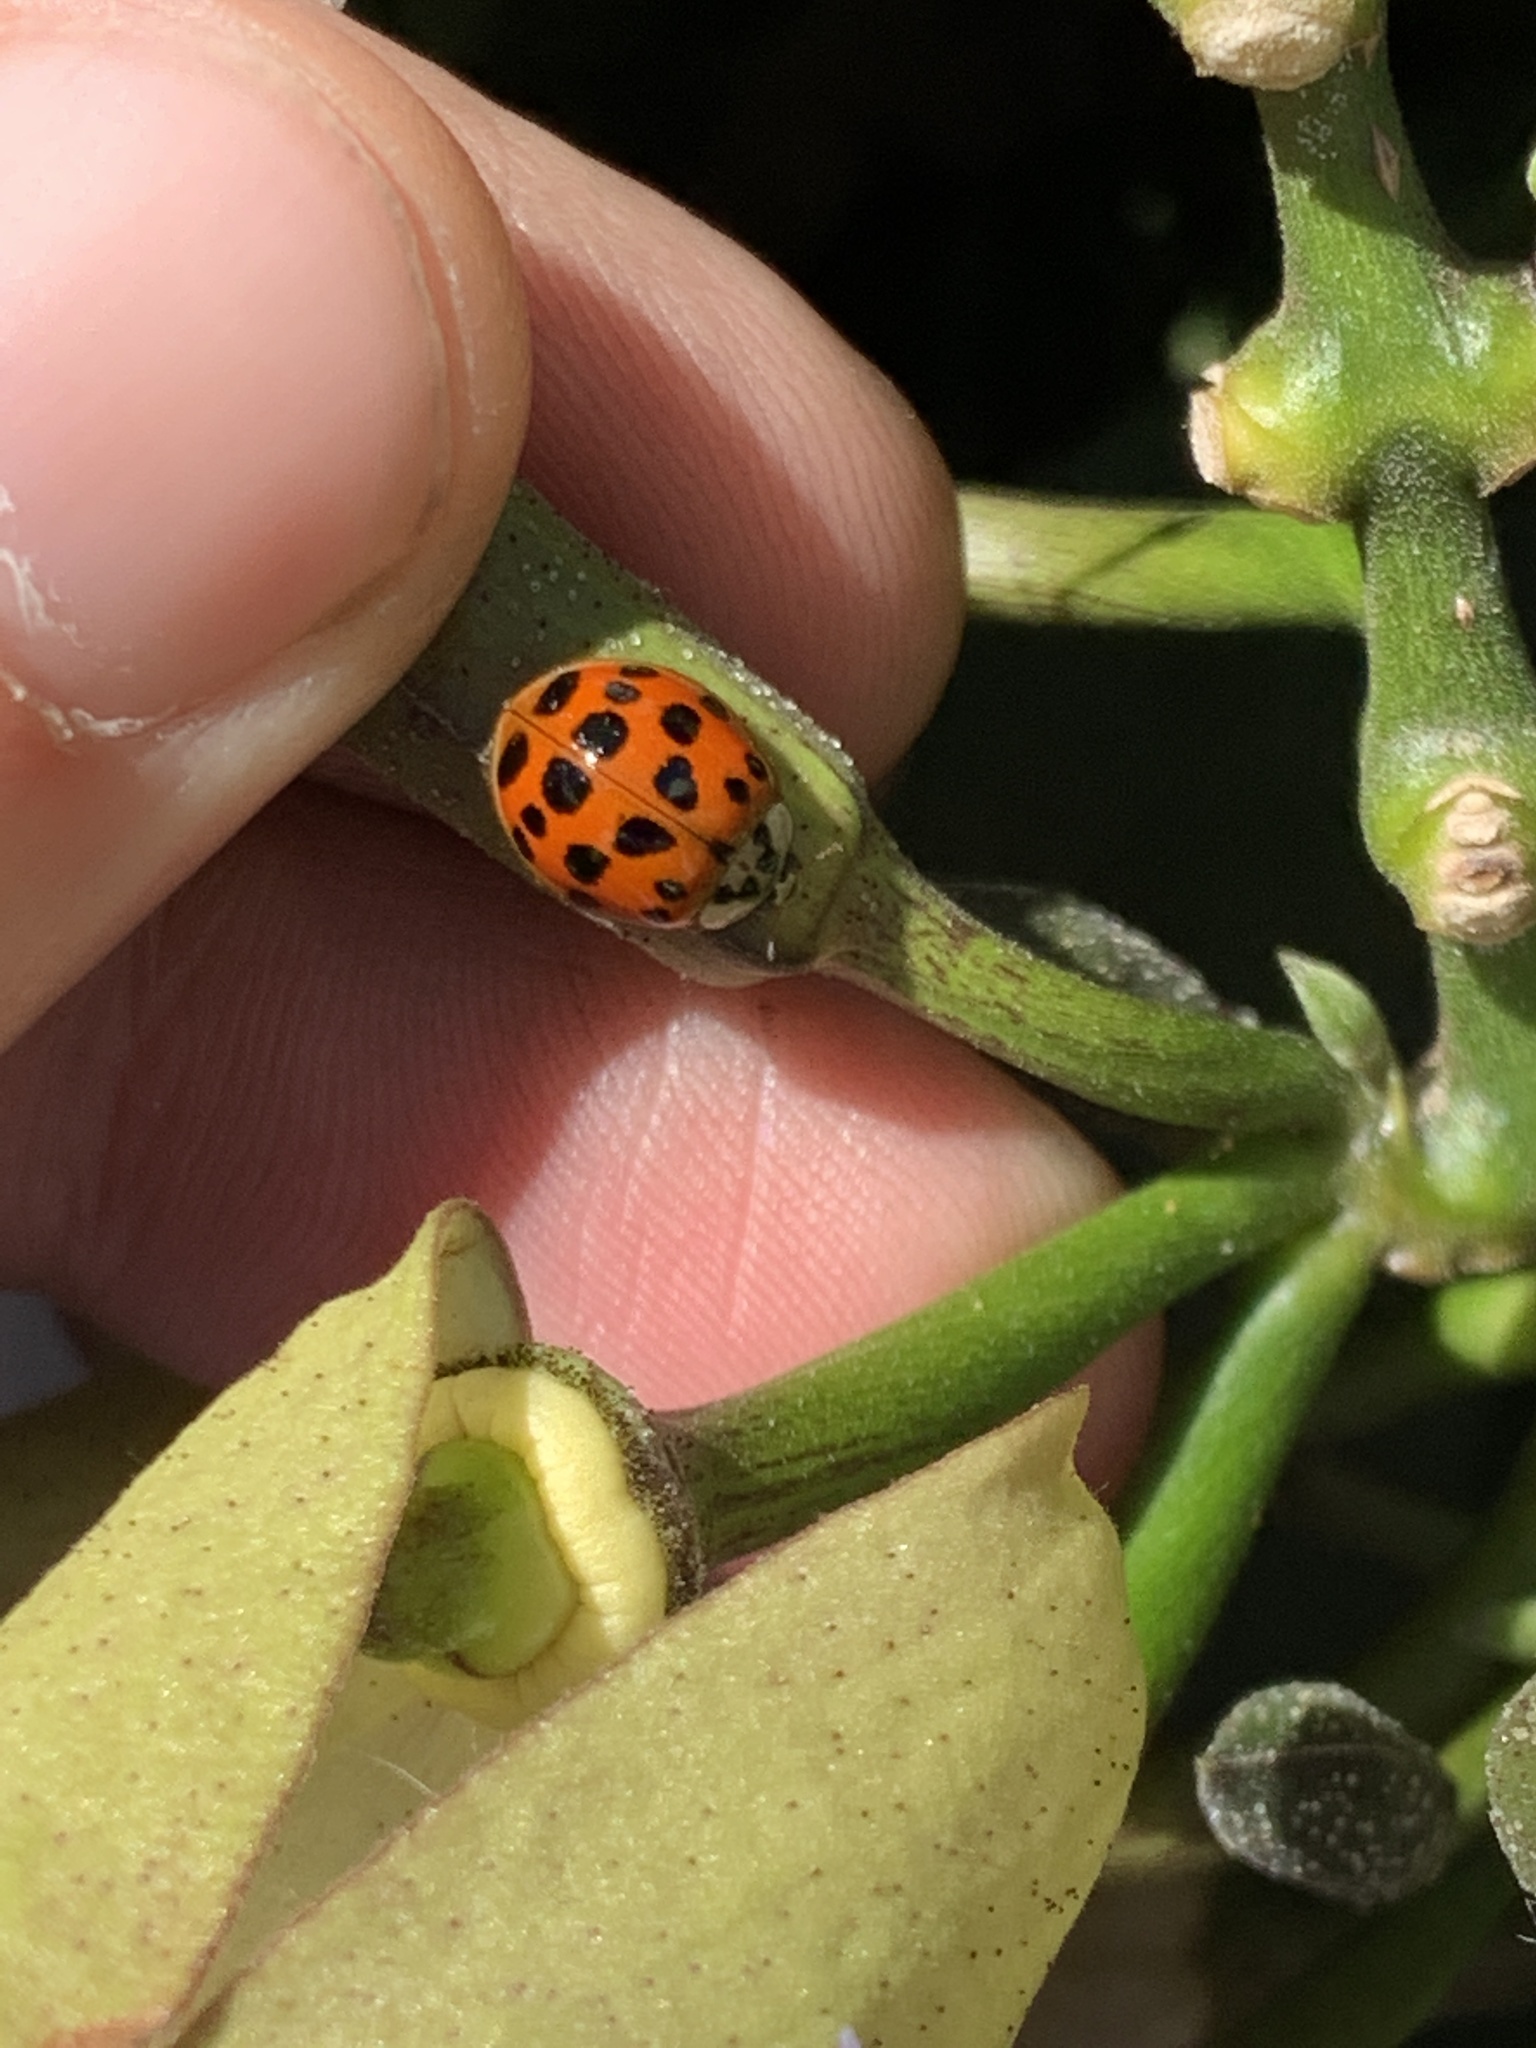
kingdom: Animalia
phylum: Arthropoda
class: Insecta
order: Coleoptera
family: Coccinellidae
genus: Harmonia
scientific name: Harmonia axyridis
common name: Harlequin ladybird
